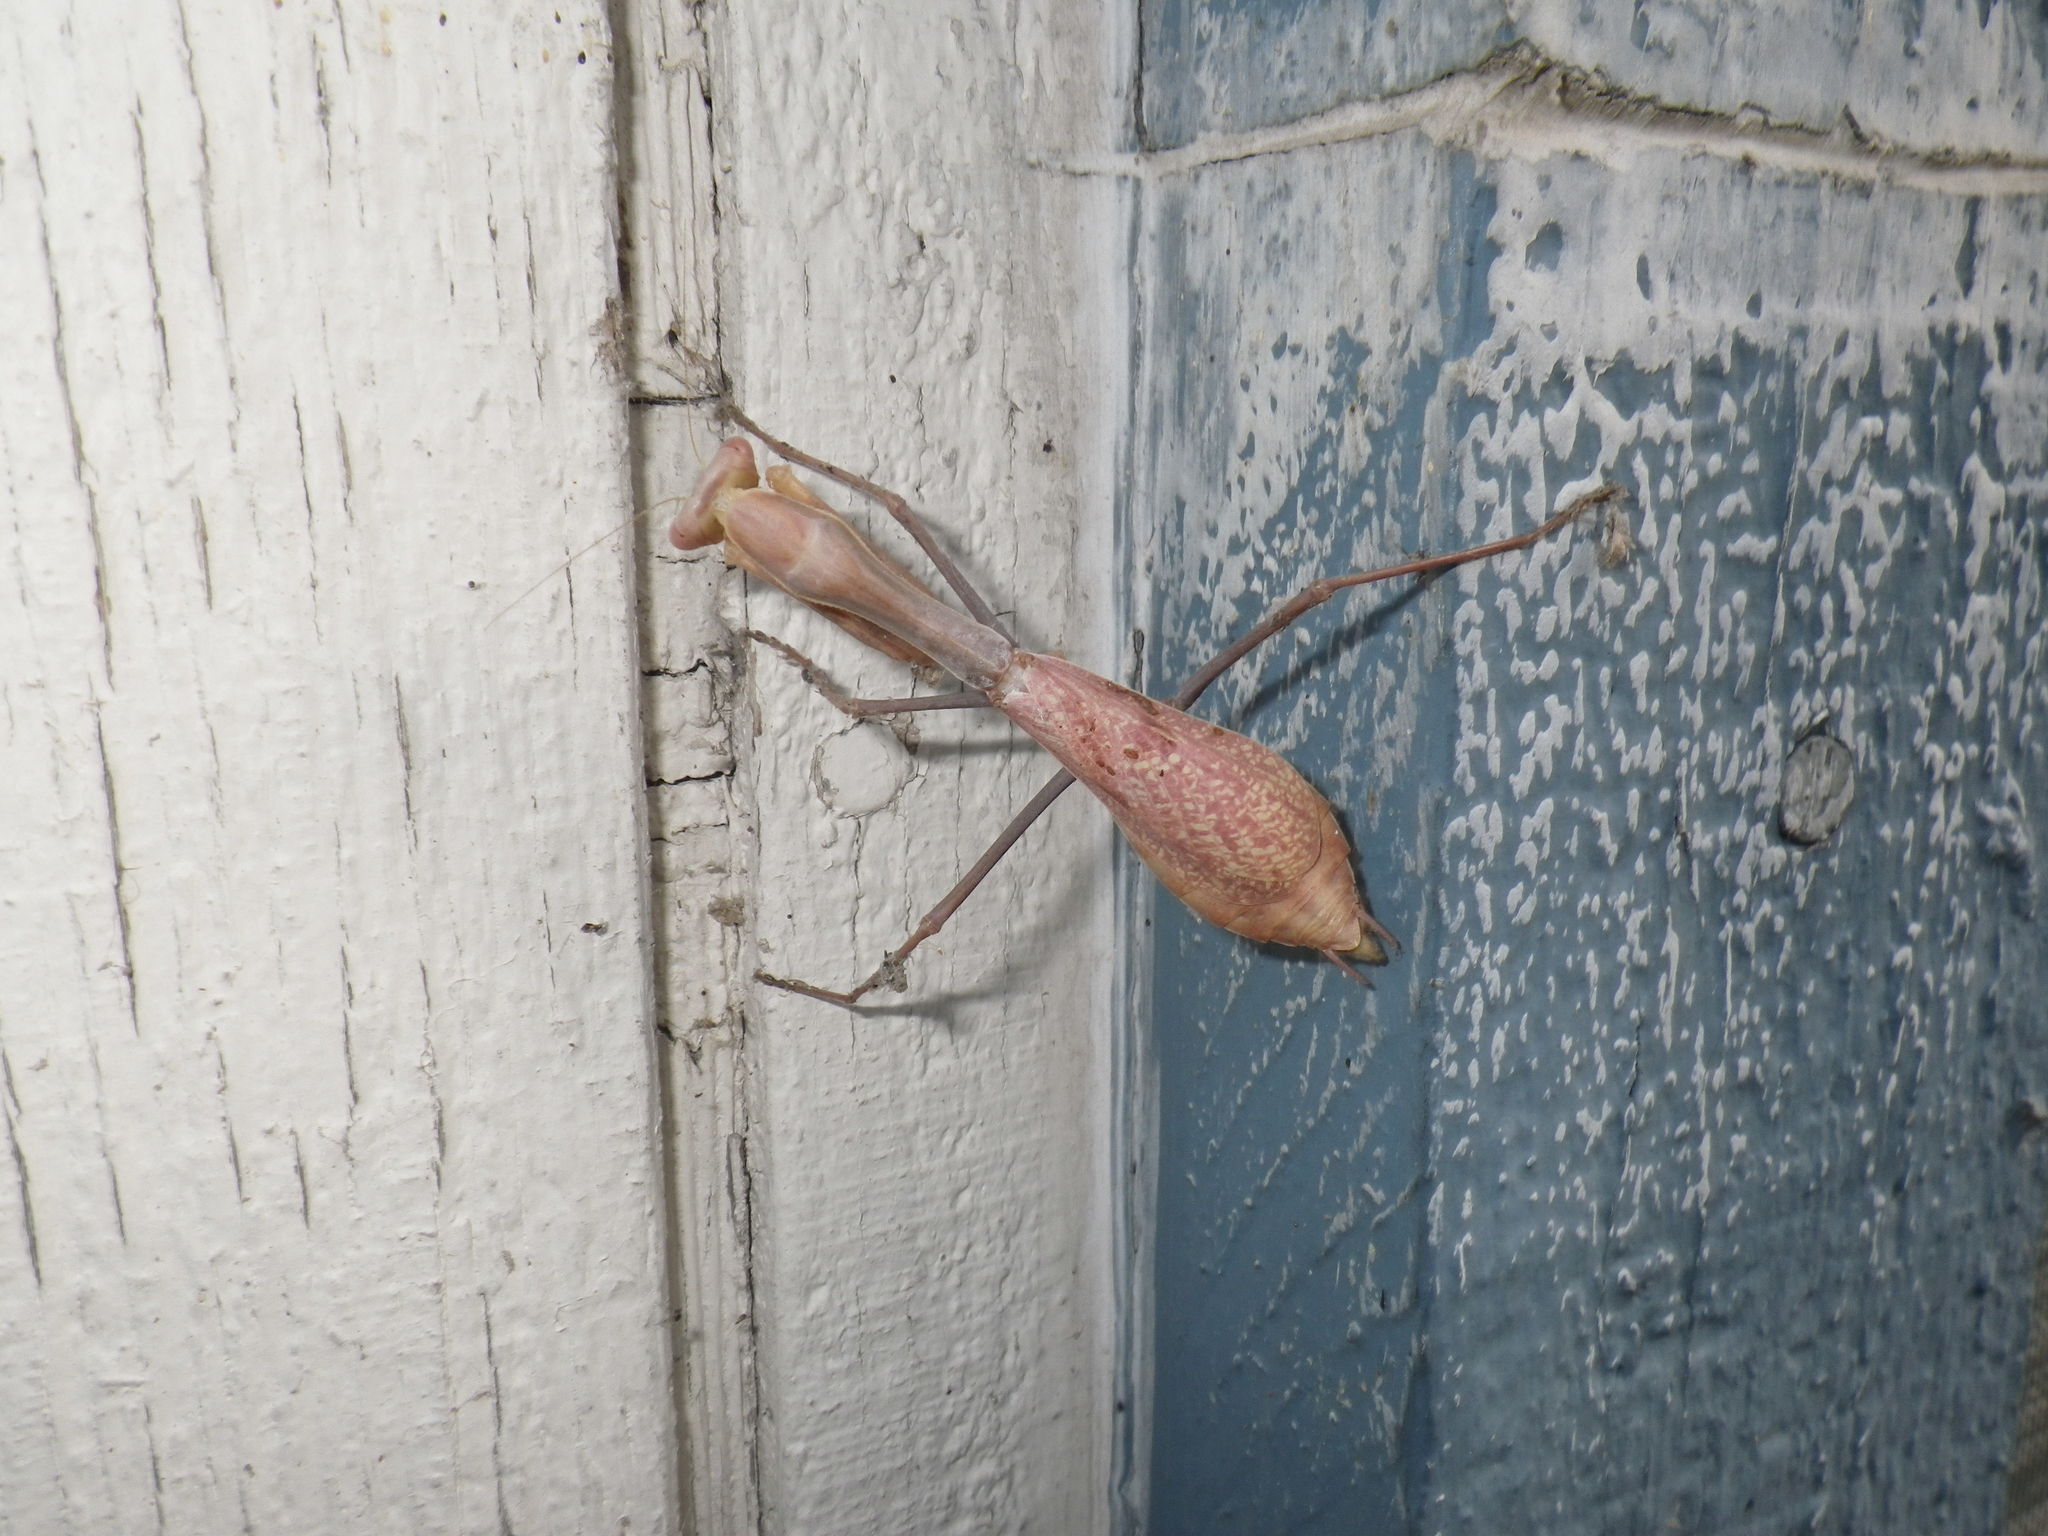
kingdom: Animalia
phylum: Arthropoda
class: Insecta
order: Mantodea
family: Mantidae
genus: Stagmomantis
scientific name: Stagmomantis limbata
